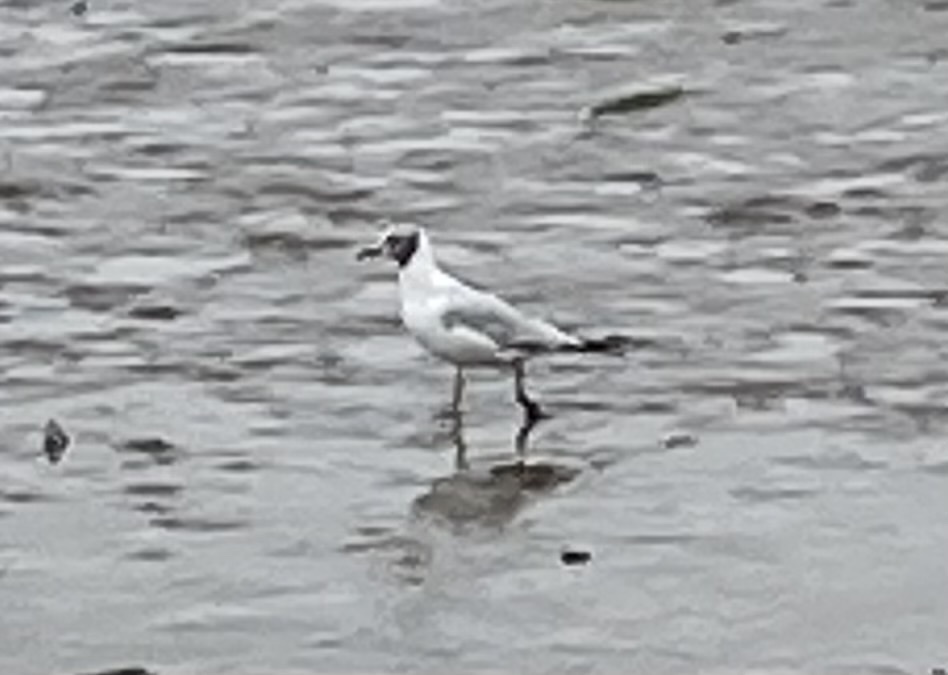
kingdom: Animalia
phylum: Chordata
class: Aves
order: Charadriiformes
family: Laridae
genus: Chroicocephalus
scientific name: Chroicocephalus ridibundus
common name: Black-headed gull
